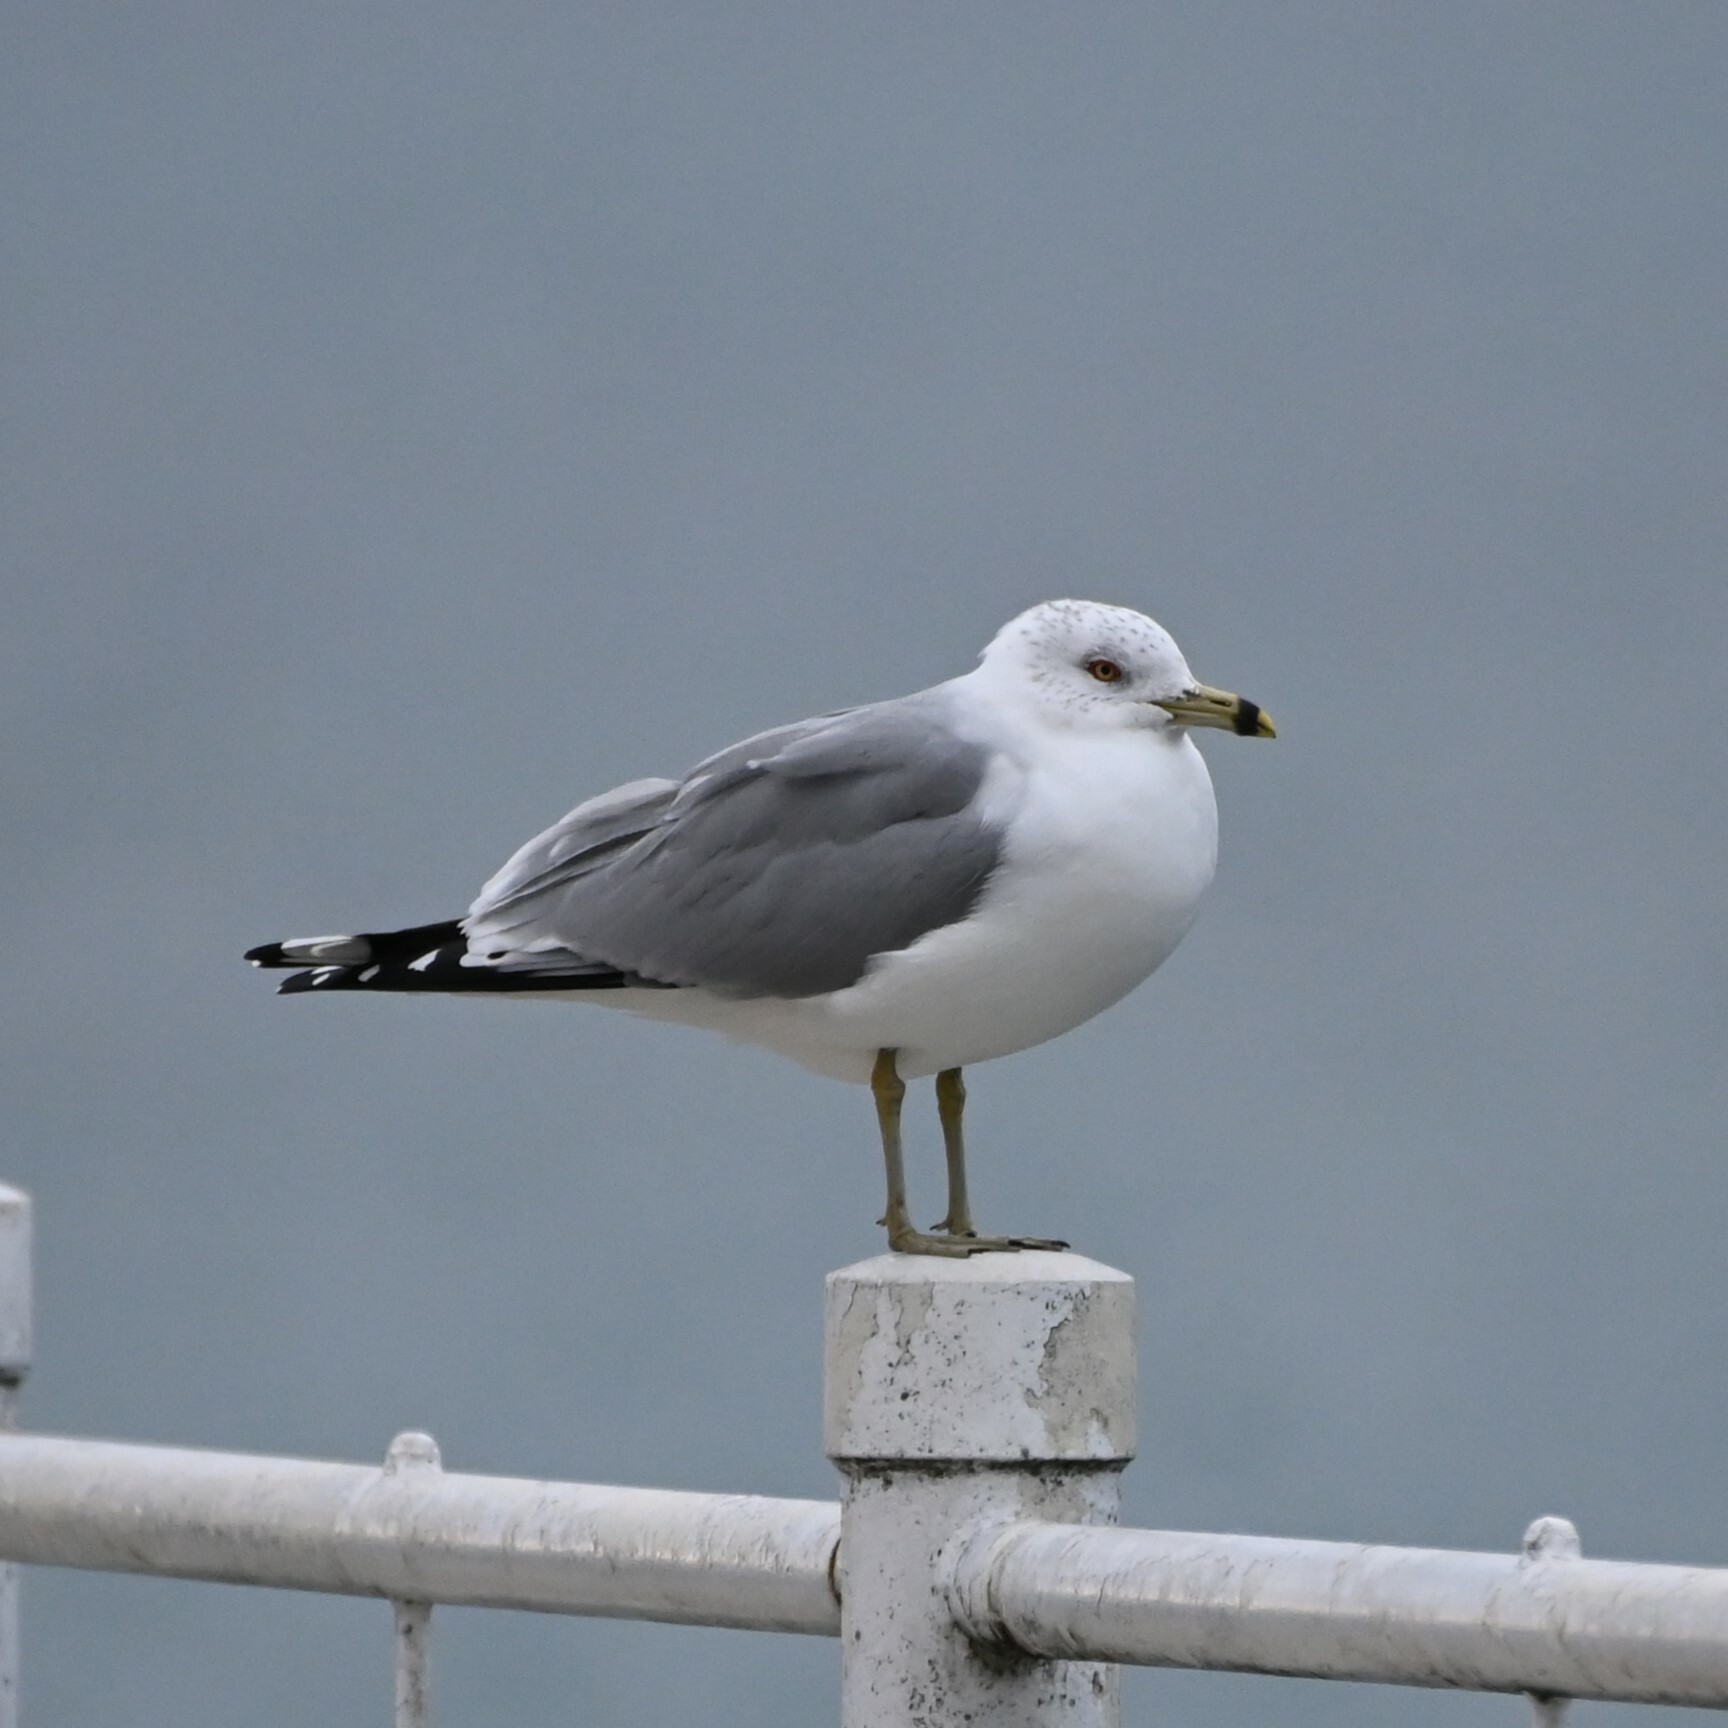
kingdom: Animalia
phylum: Chordata
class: Aves
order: Charadriiformes
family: Laridae
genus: Larus
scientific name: Larus delawarensis
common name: Ring-billed gull
